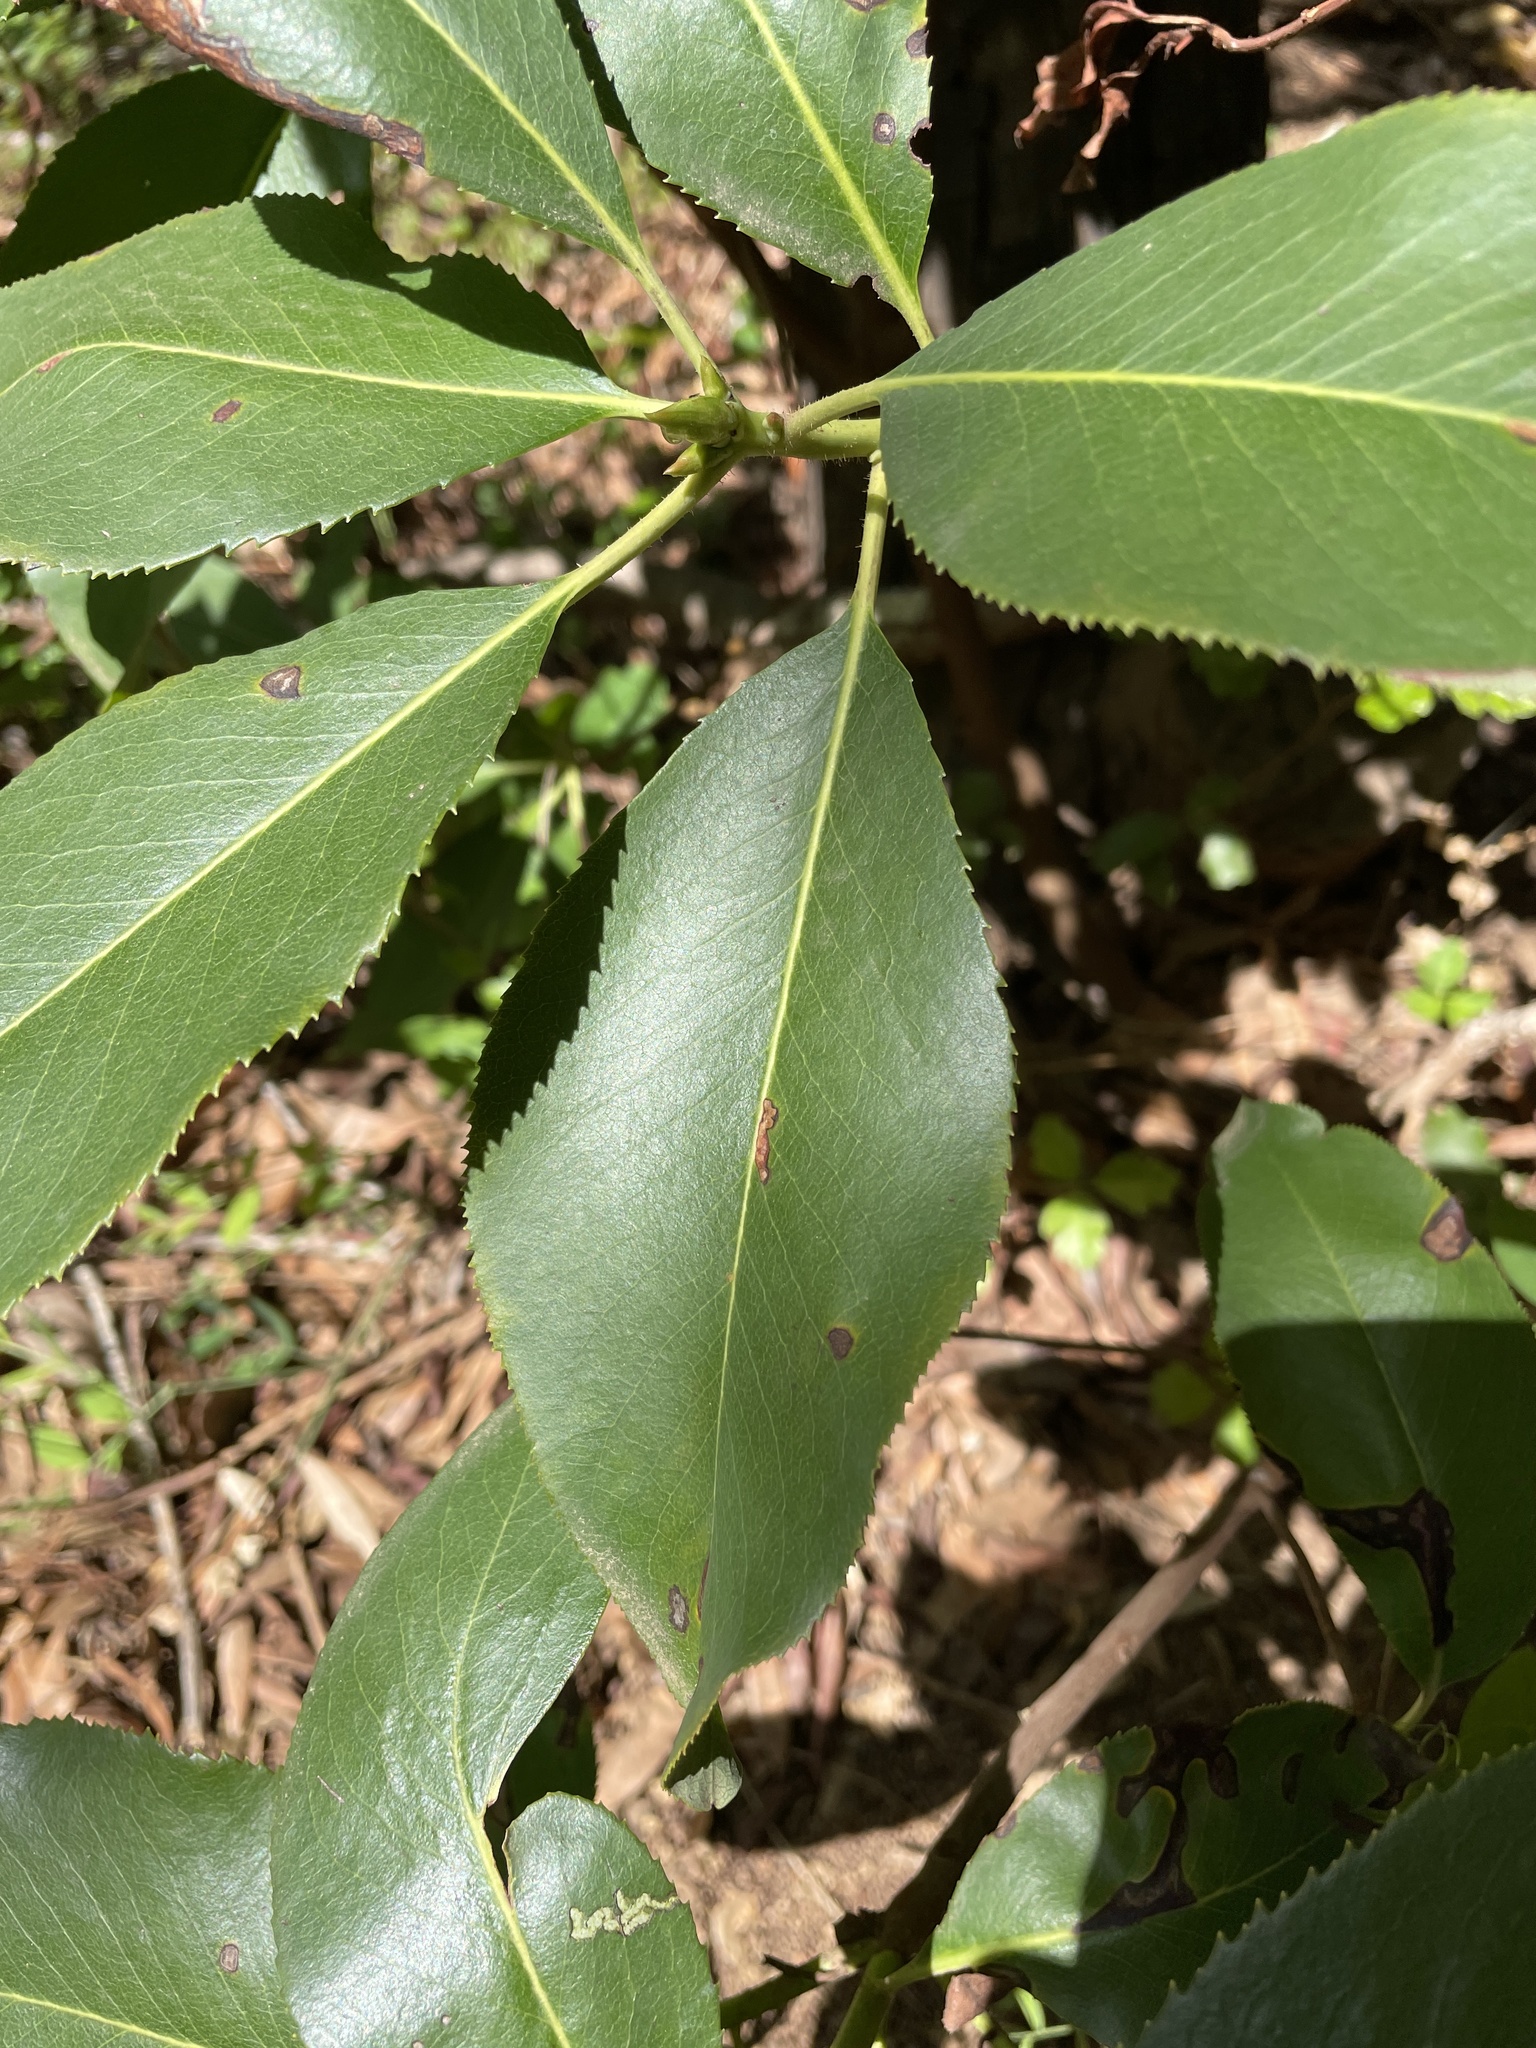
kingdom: Plantae
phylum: Tracheophyta
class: Magnoliopsida
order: Ericales
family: Ericaceae
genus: Arbutus
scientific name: Arbutus menziesii
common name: Pacific madrone
